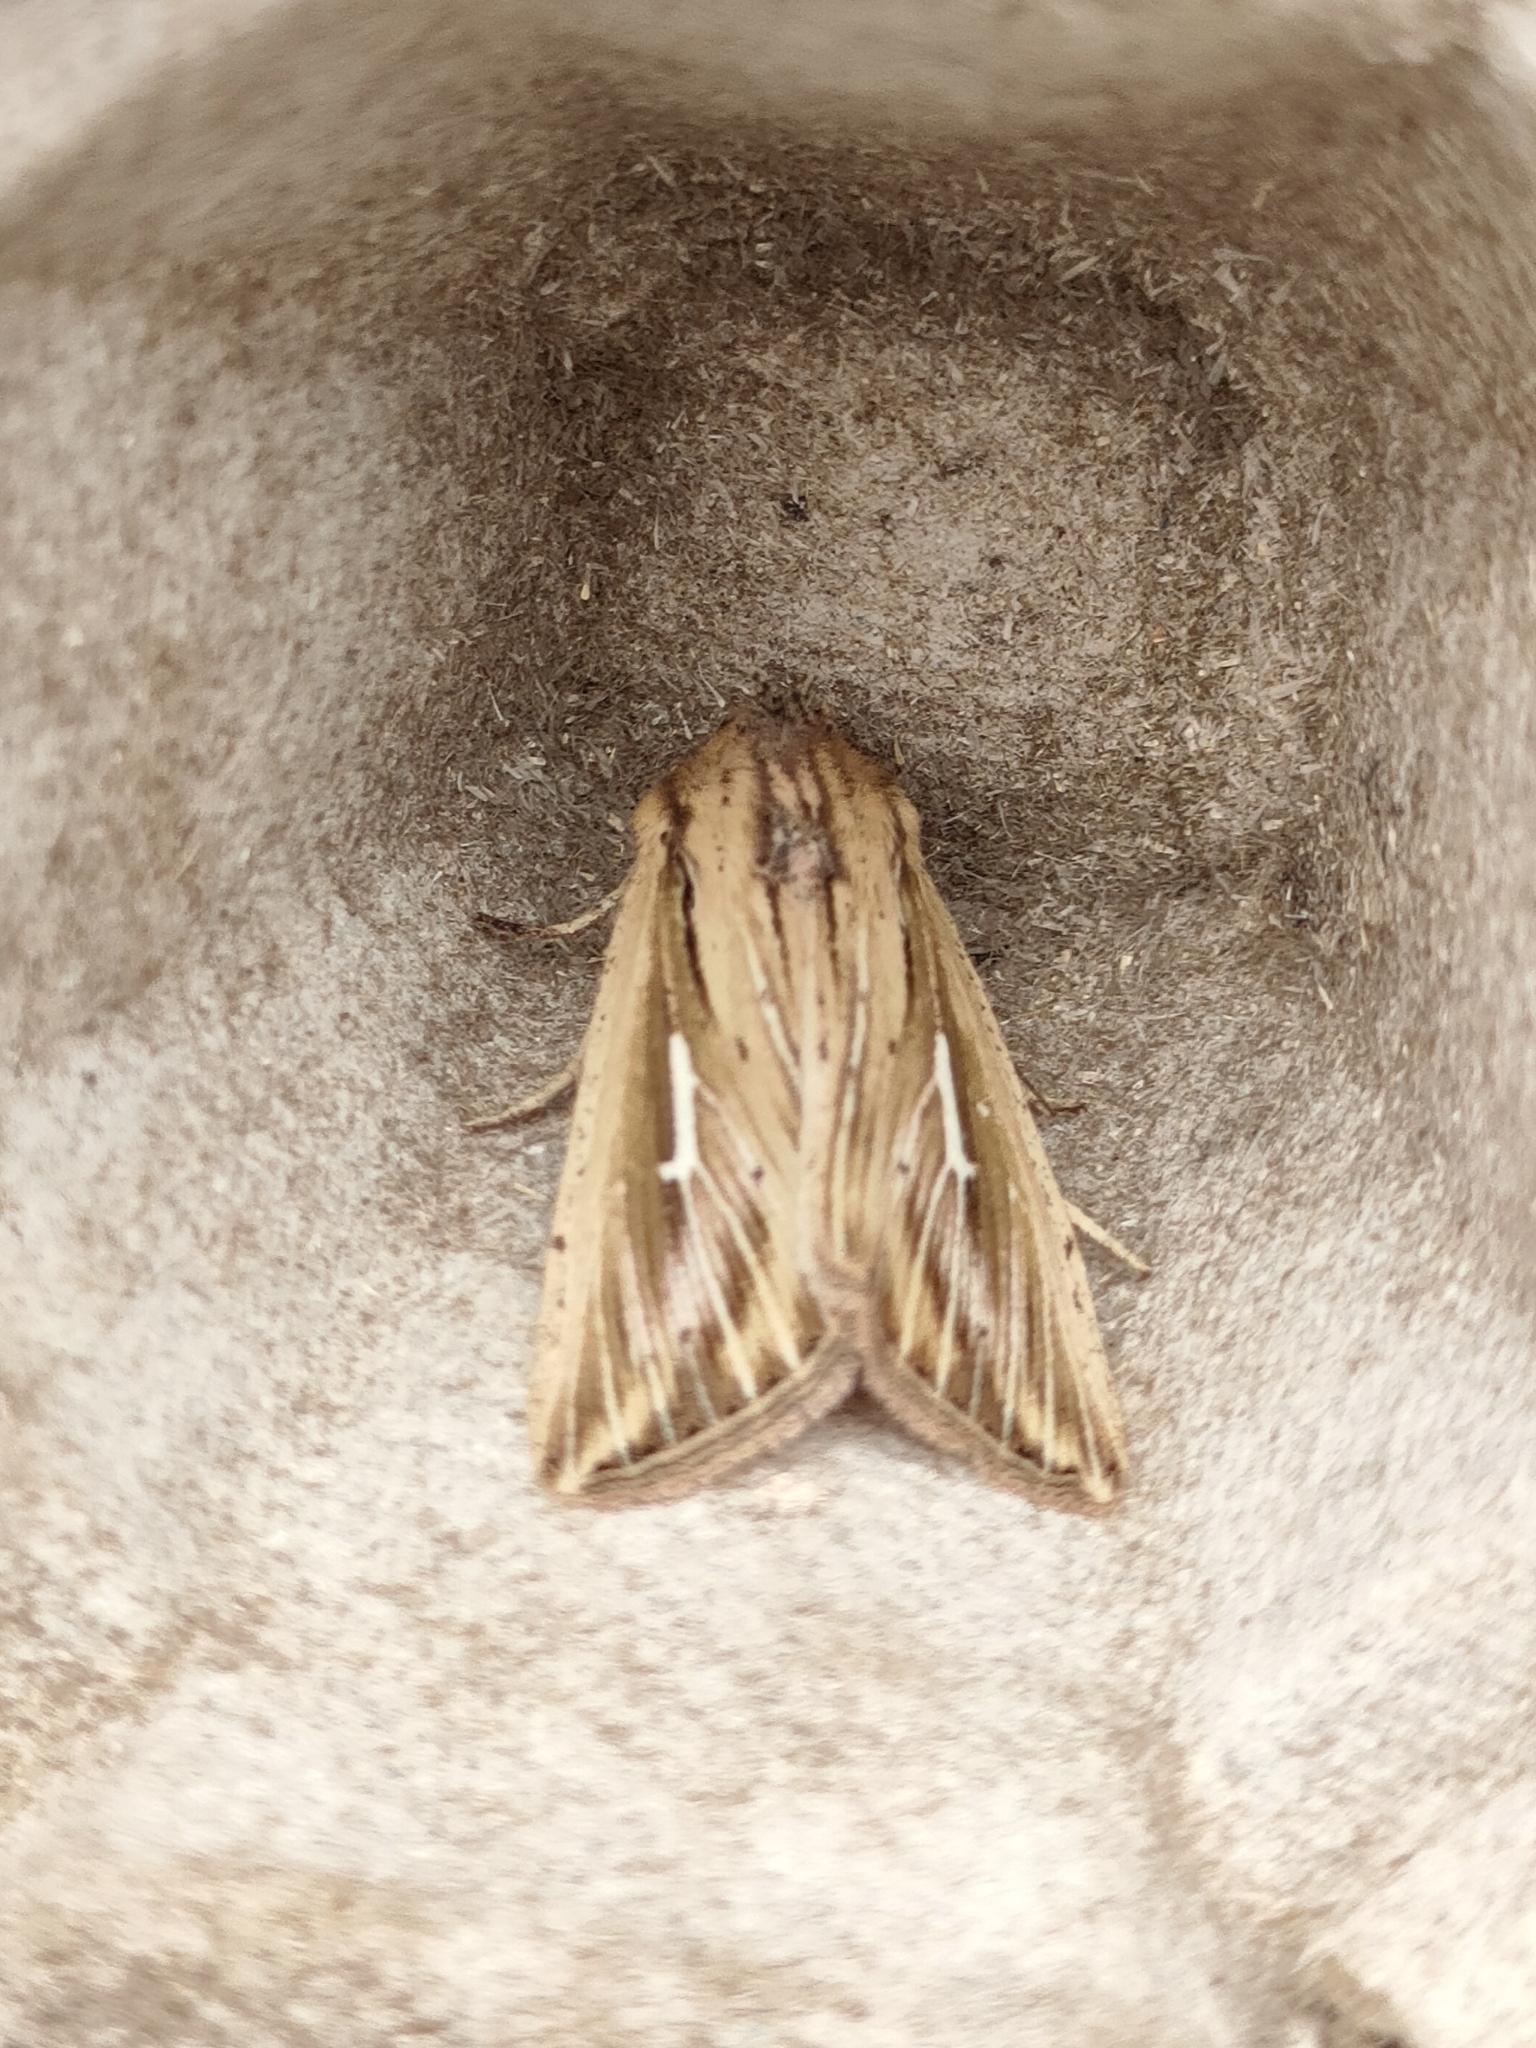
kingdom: Animalia
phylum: Arthropoda
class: Insecta
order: Lepidoptera
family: Noctuidae
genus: Mythimna
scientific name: Mythimna l-album
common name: L-album wainscot
